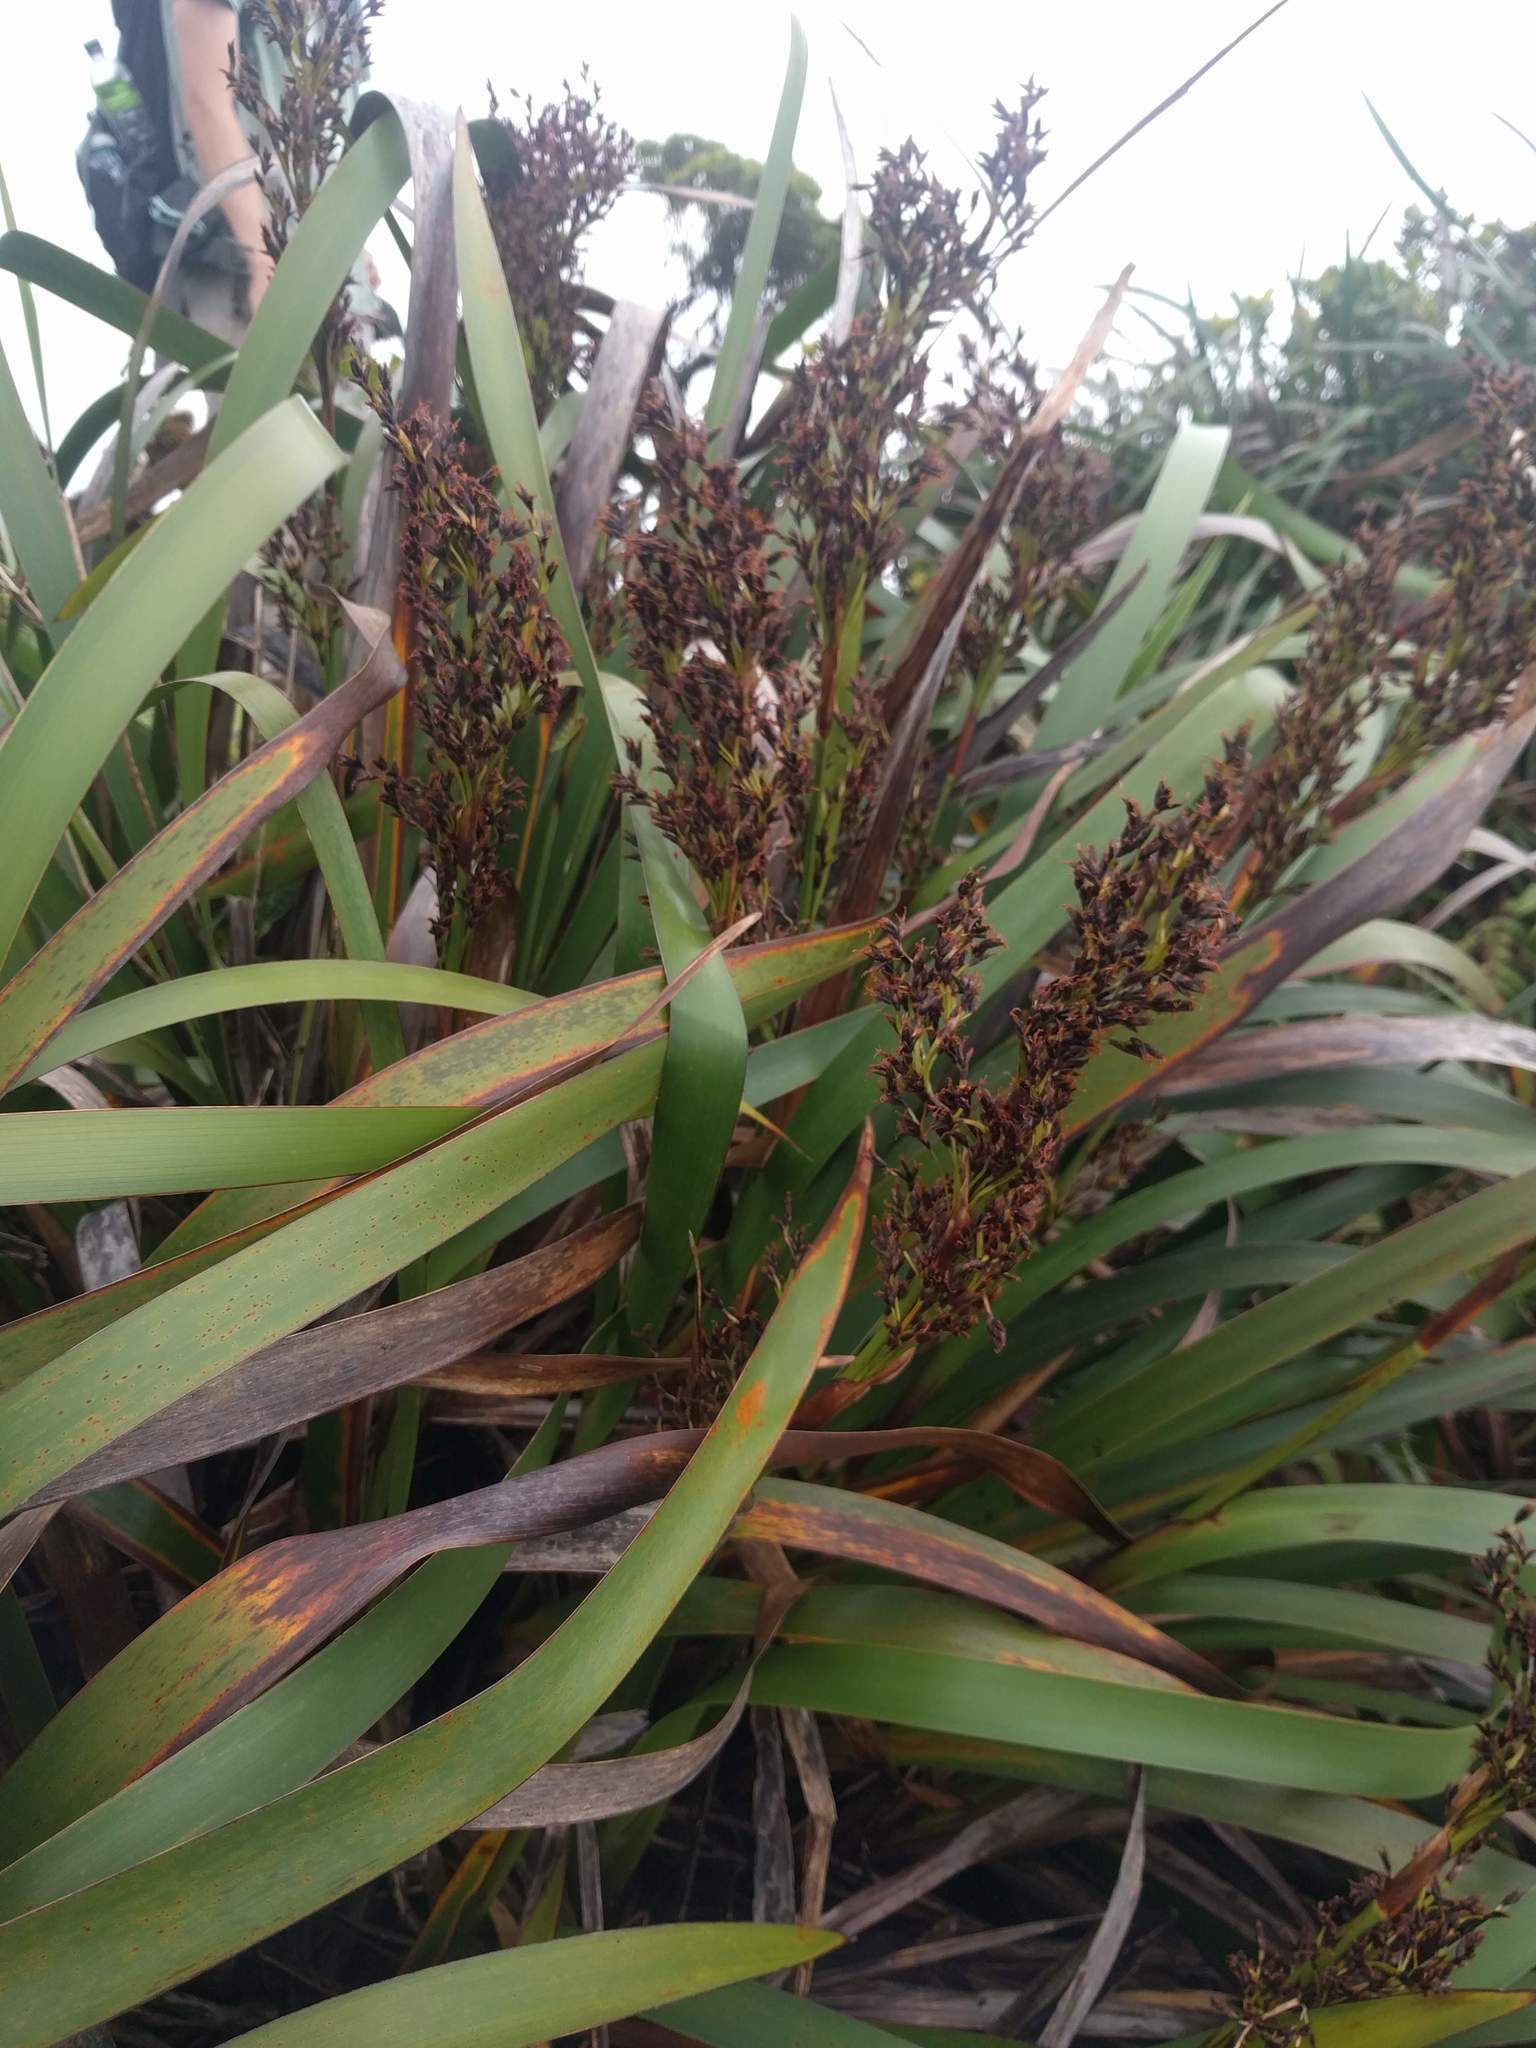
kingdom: Plantae
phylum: Tracheophyta
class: Liliopsida
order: Poales
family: Cyperaceae
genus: Machaerina
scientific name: Machaerina angustifolia
